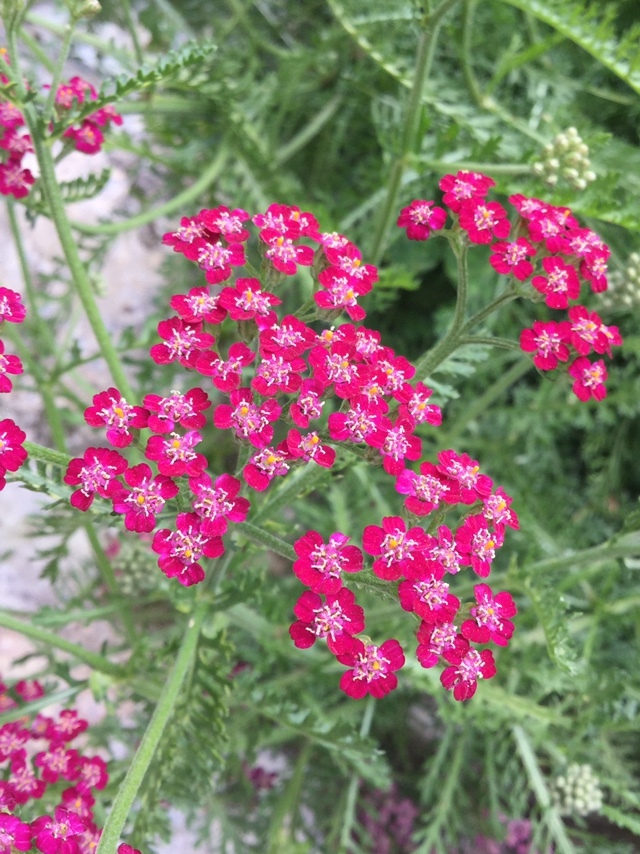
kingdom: Plantae
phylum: Tracheophyta
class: Magnoliopsida
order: Asterales
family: Asteraceae
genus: Achillea
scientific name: Achillea millefolium
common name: Yarrow
